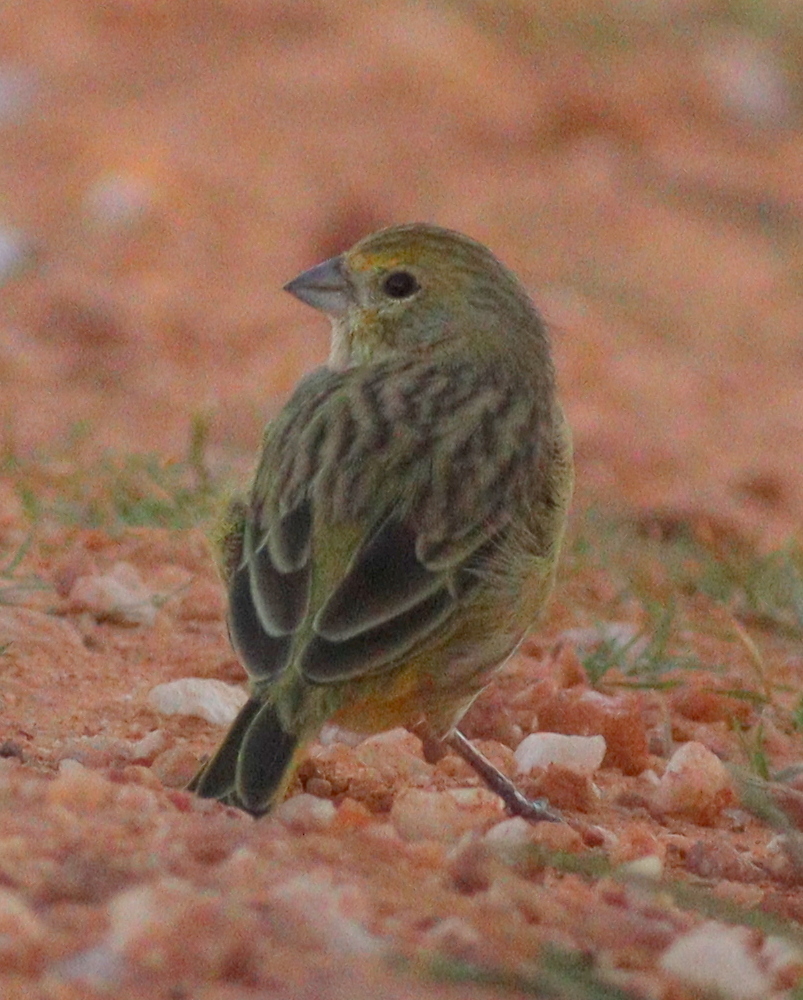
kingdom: Animalia
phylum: Chordata
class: Aves
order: Passeriformes
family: Thraupidae
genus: Sicalis
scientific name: Sicalis flaveola
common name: Saffron finch
